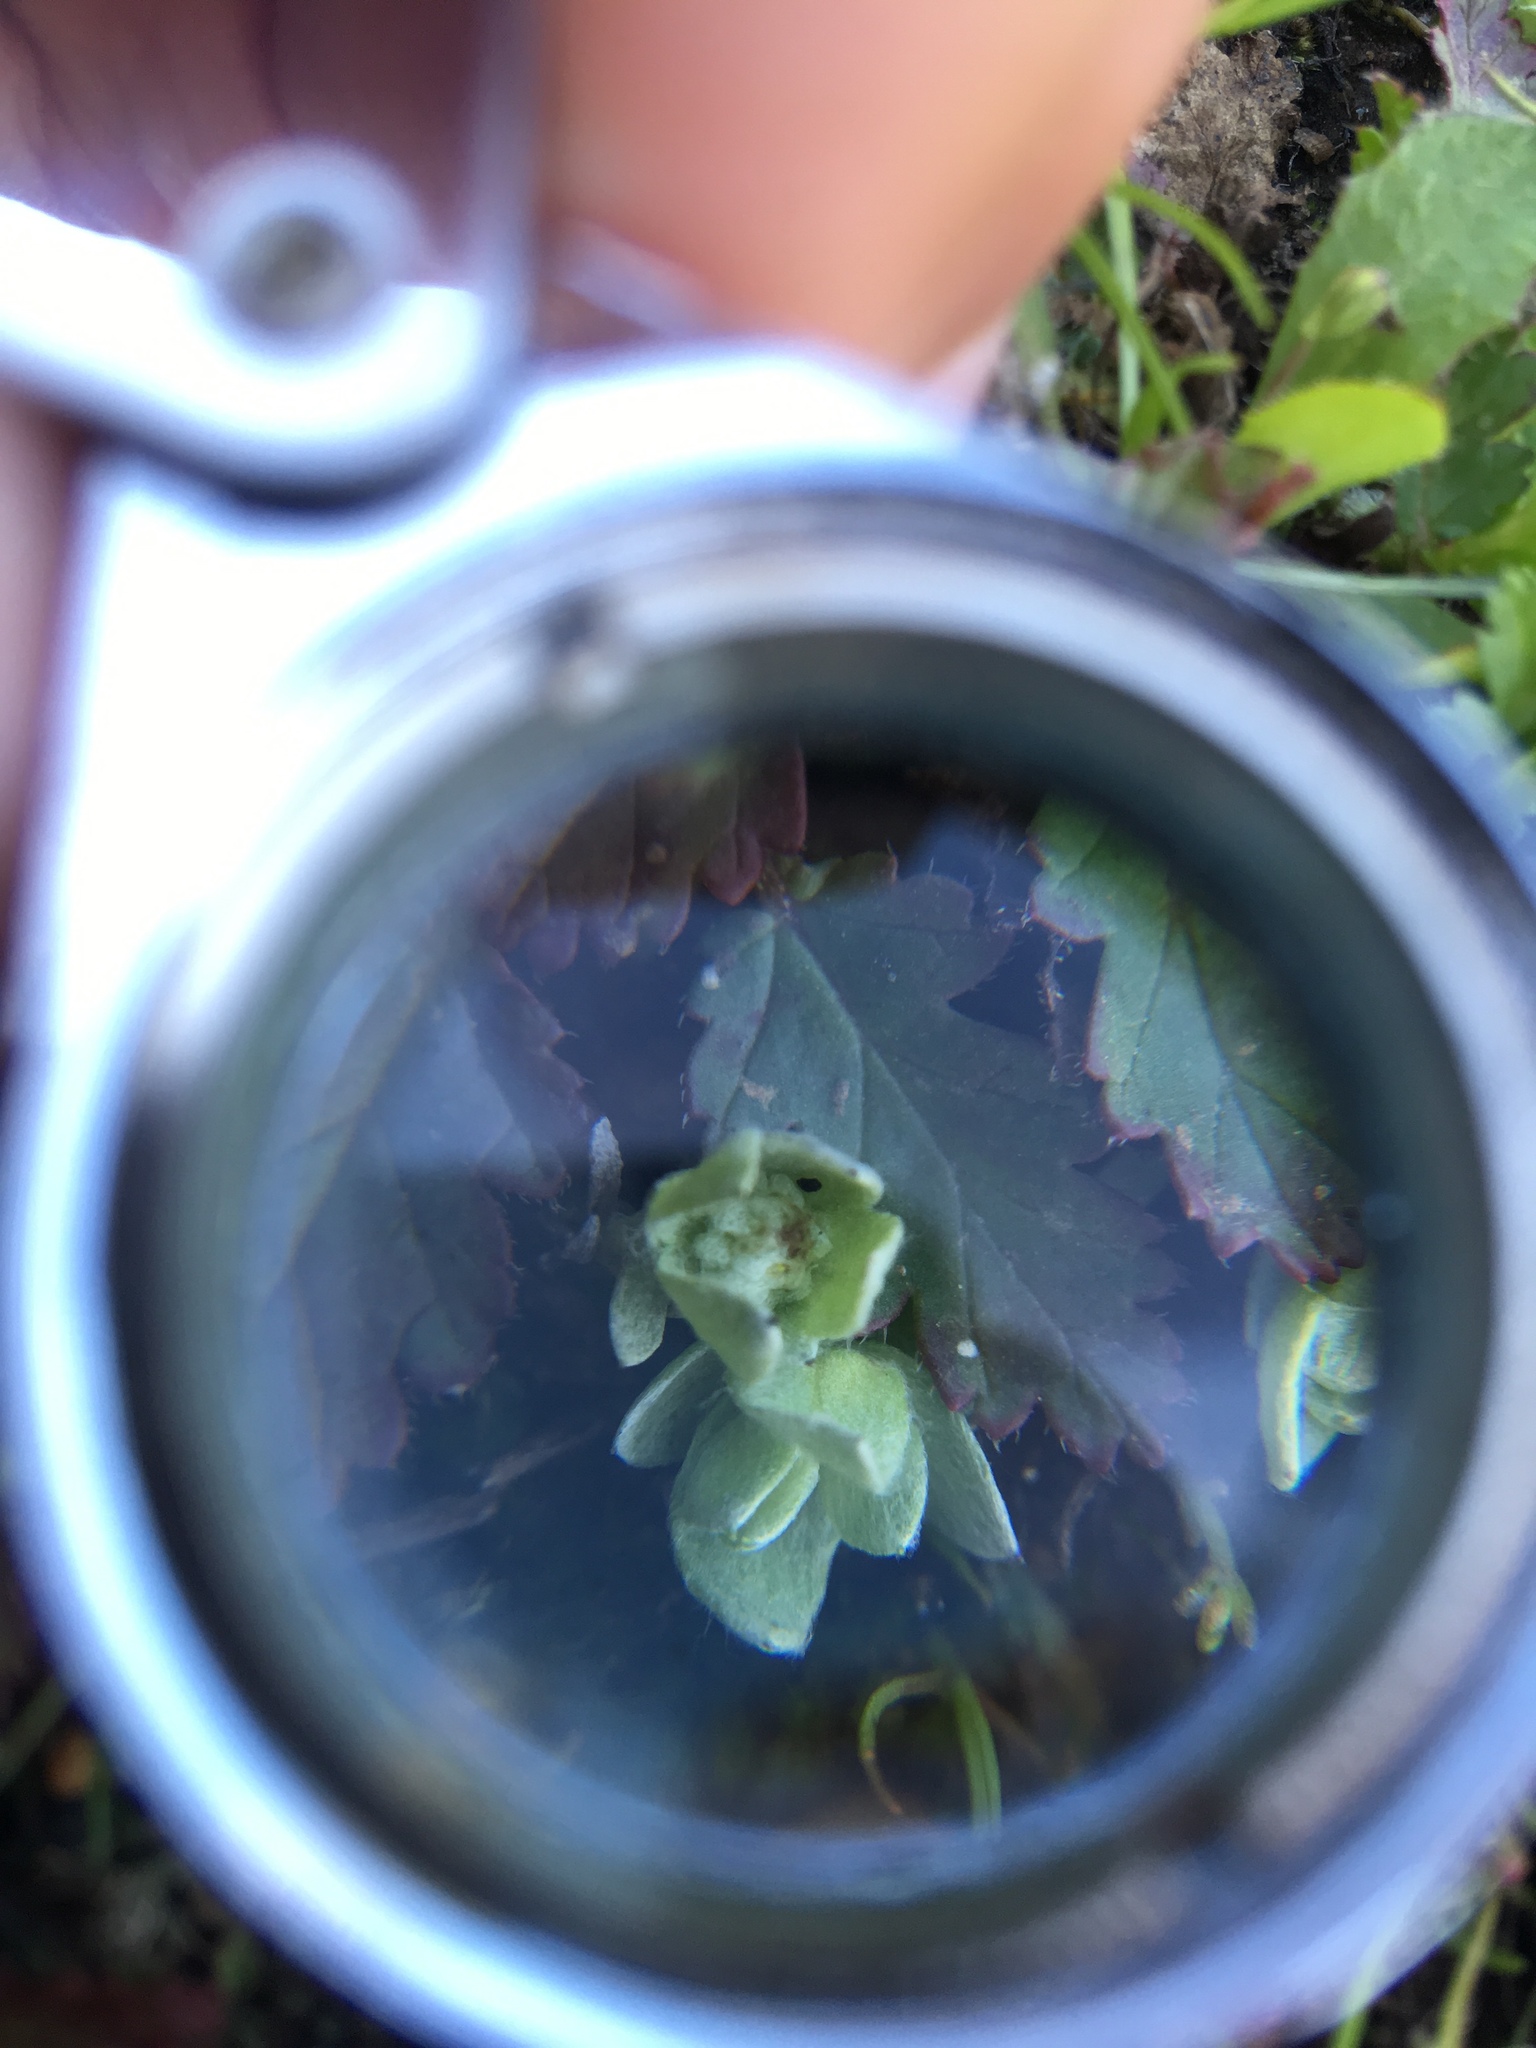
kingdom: Plantae
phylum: Tracheophyta
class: Magnoliopsida
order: Asterales
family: Asteraceae
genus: Psilocarphus
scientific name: Psilocarphus chilensis
